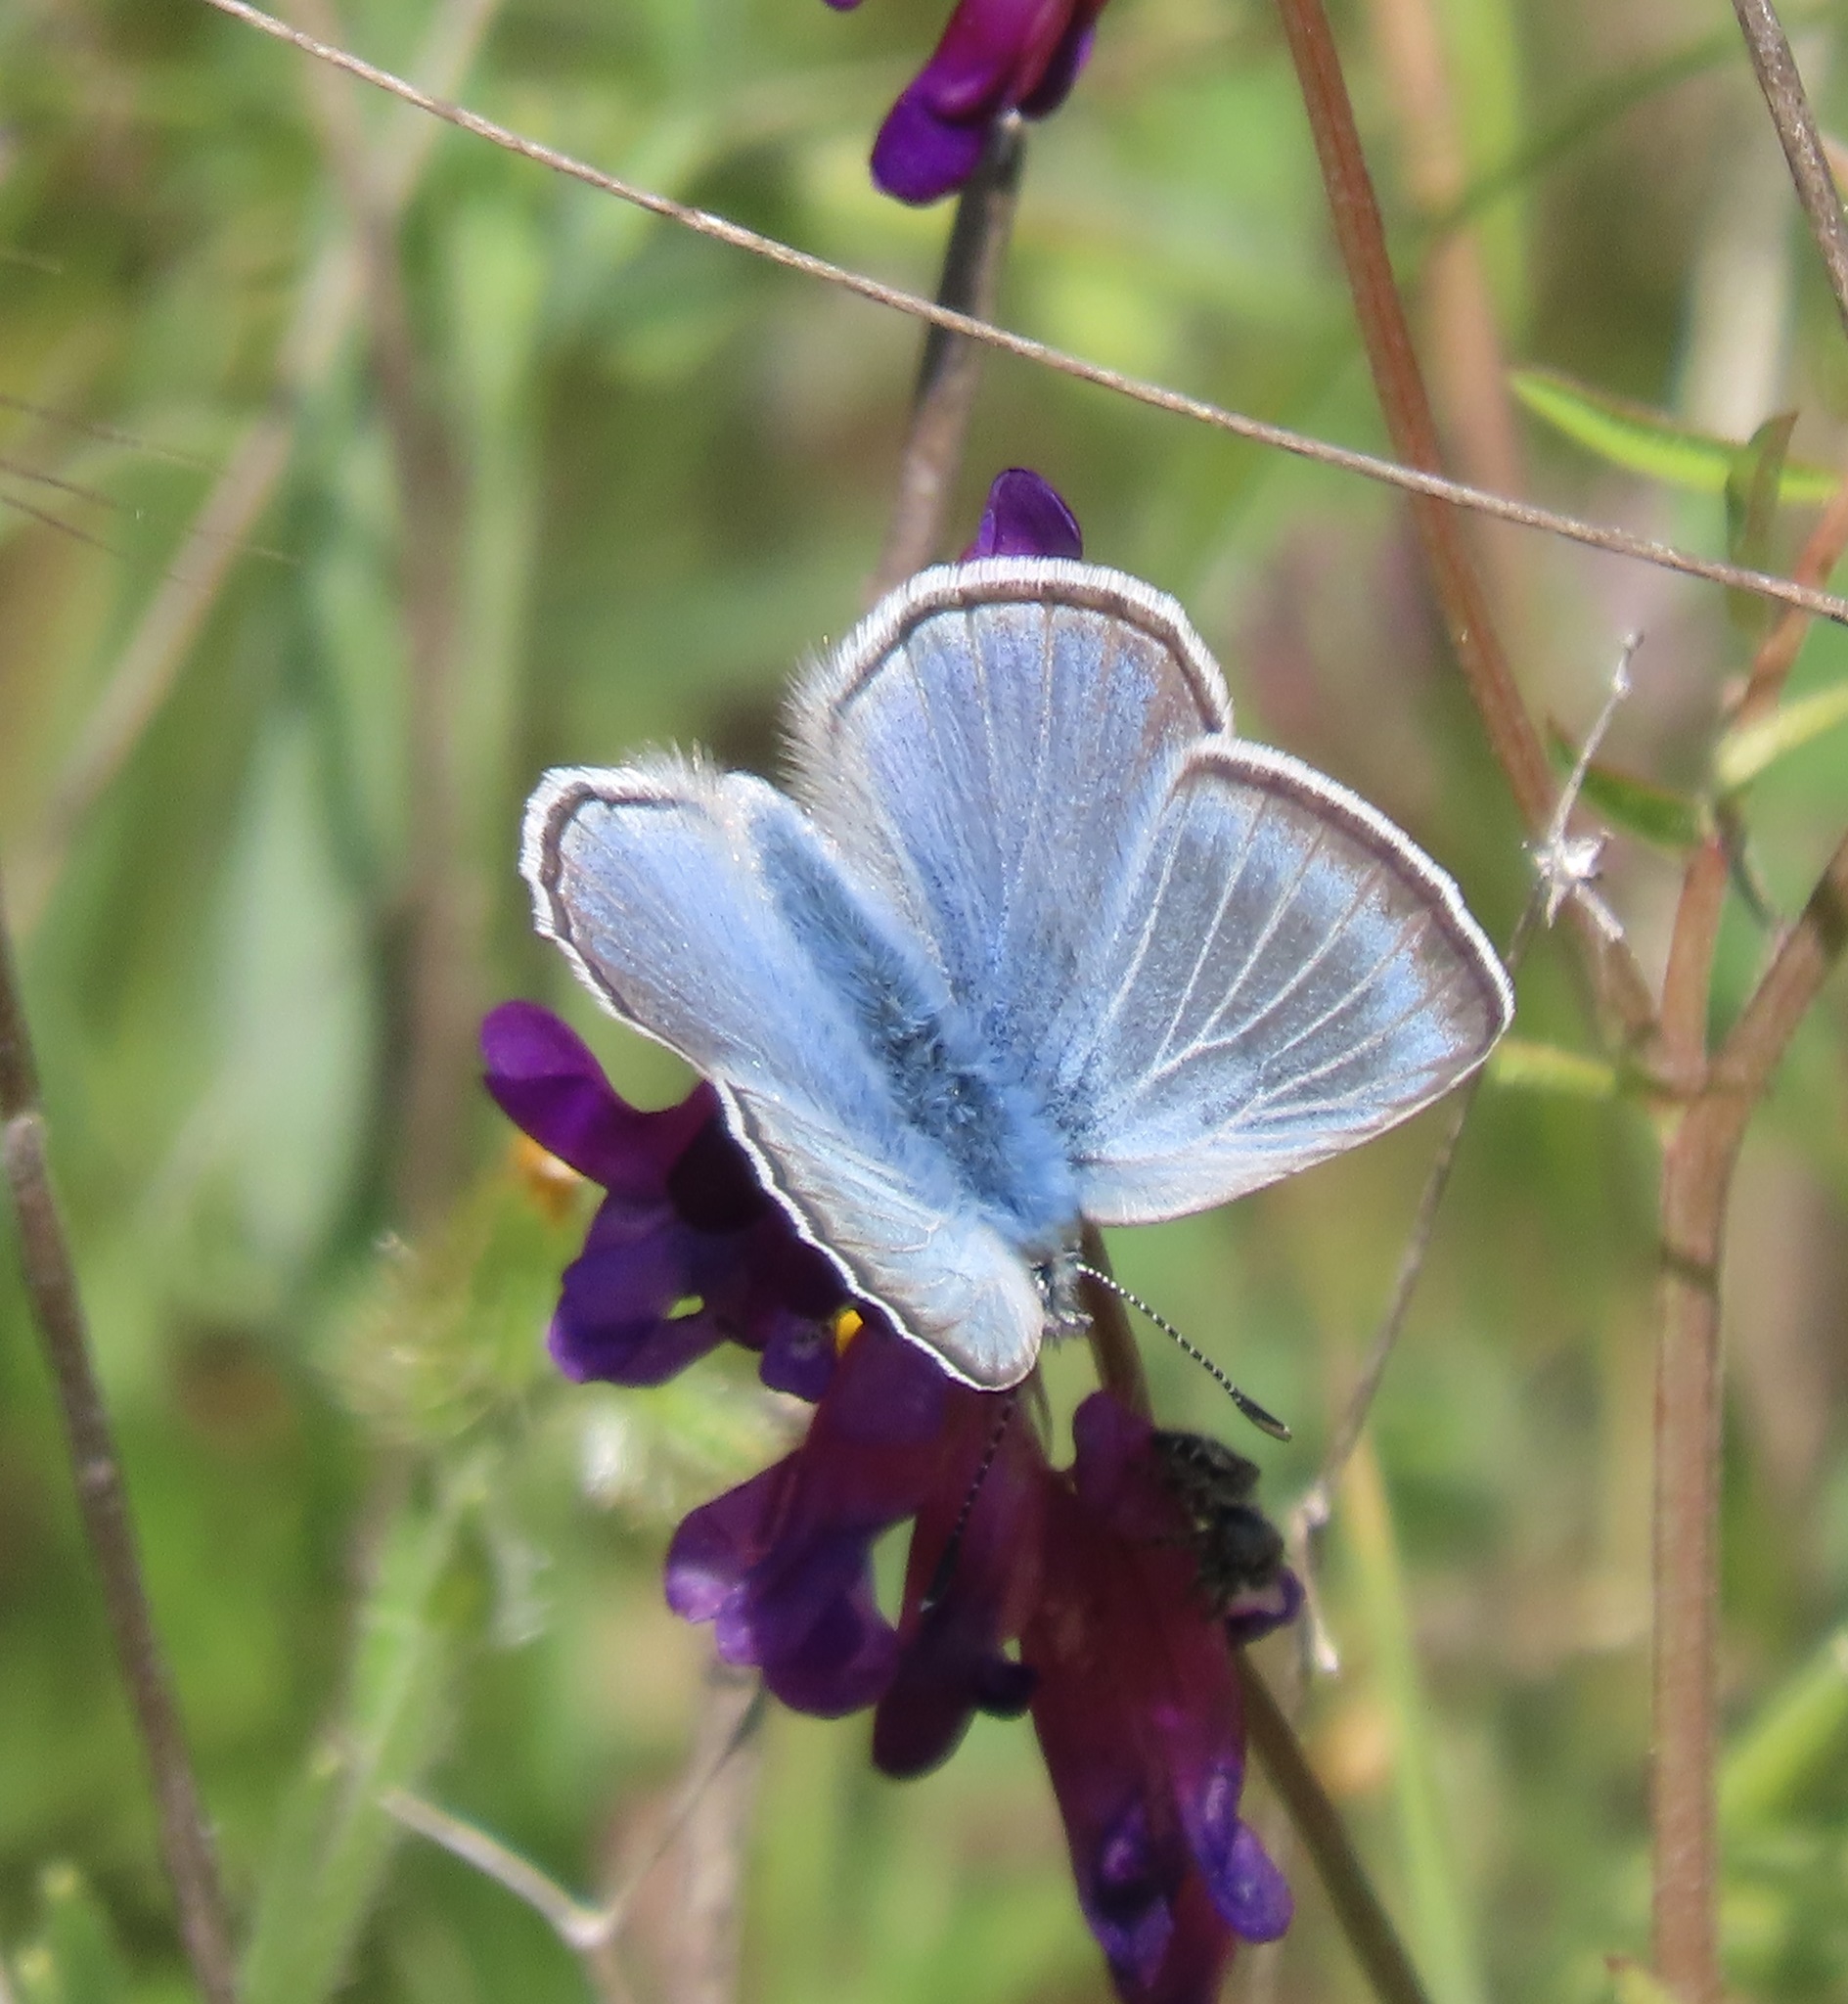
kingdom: Animalia
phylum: Arthropoda
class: Insecta
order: Lepidoptera
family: Lycaenidae
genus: Icaricia
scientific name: Icaricia icarioides
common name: Boisduval's blue
